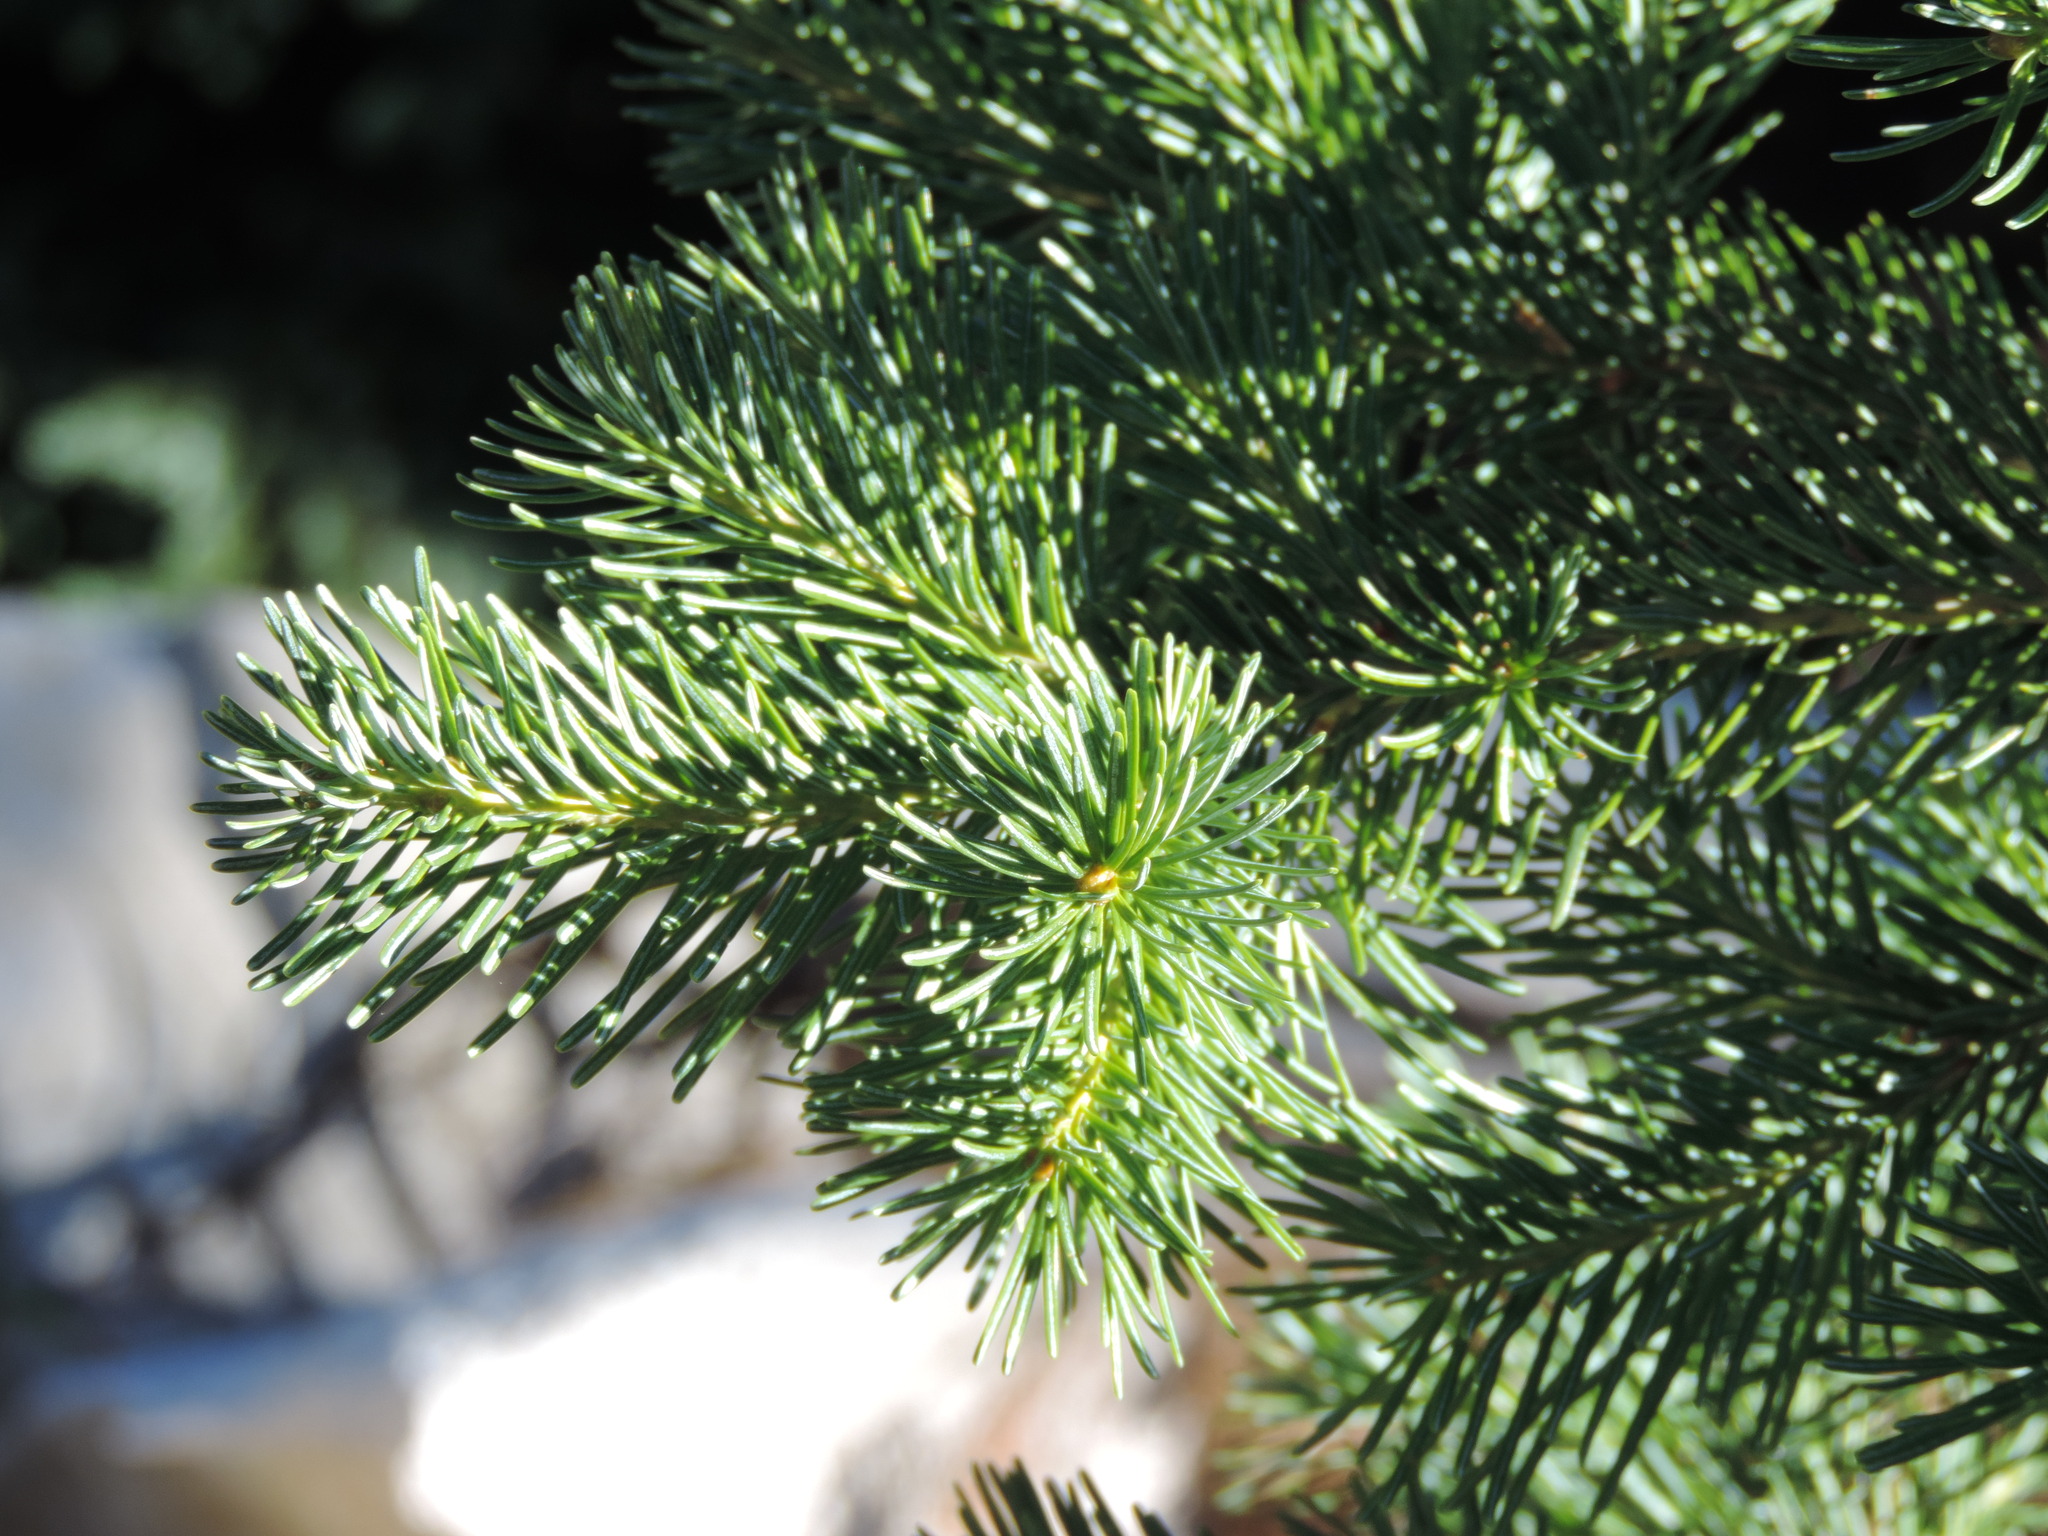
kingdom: Plantae
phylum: Tracheophyta
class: Pinopsida
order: Pinales
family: Pinaceae
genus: Abies
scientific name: Abies lasiocarpa
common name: Subalpine fir
